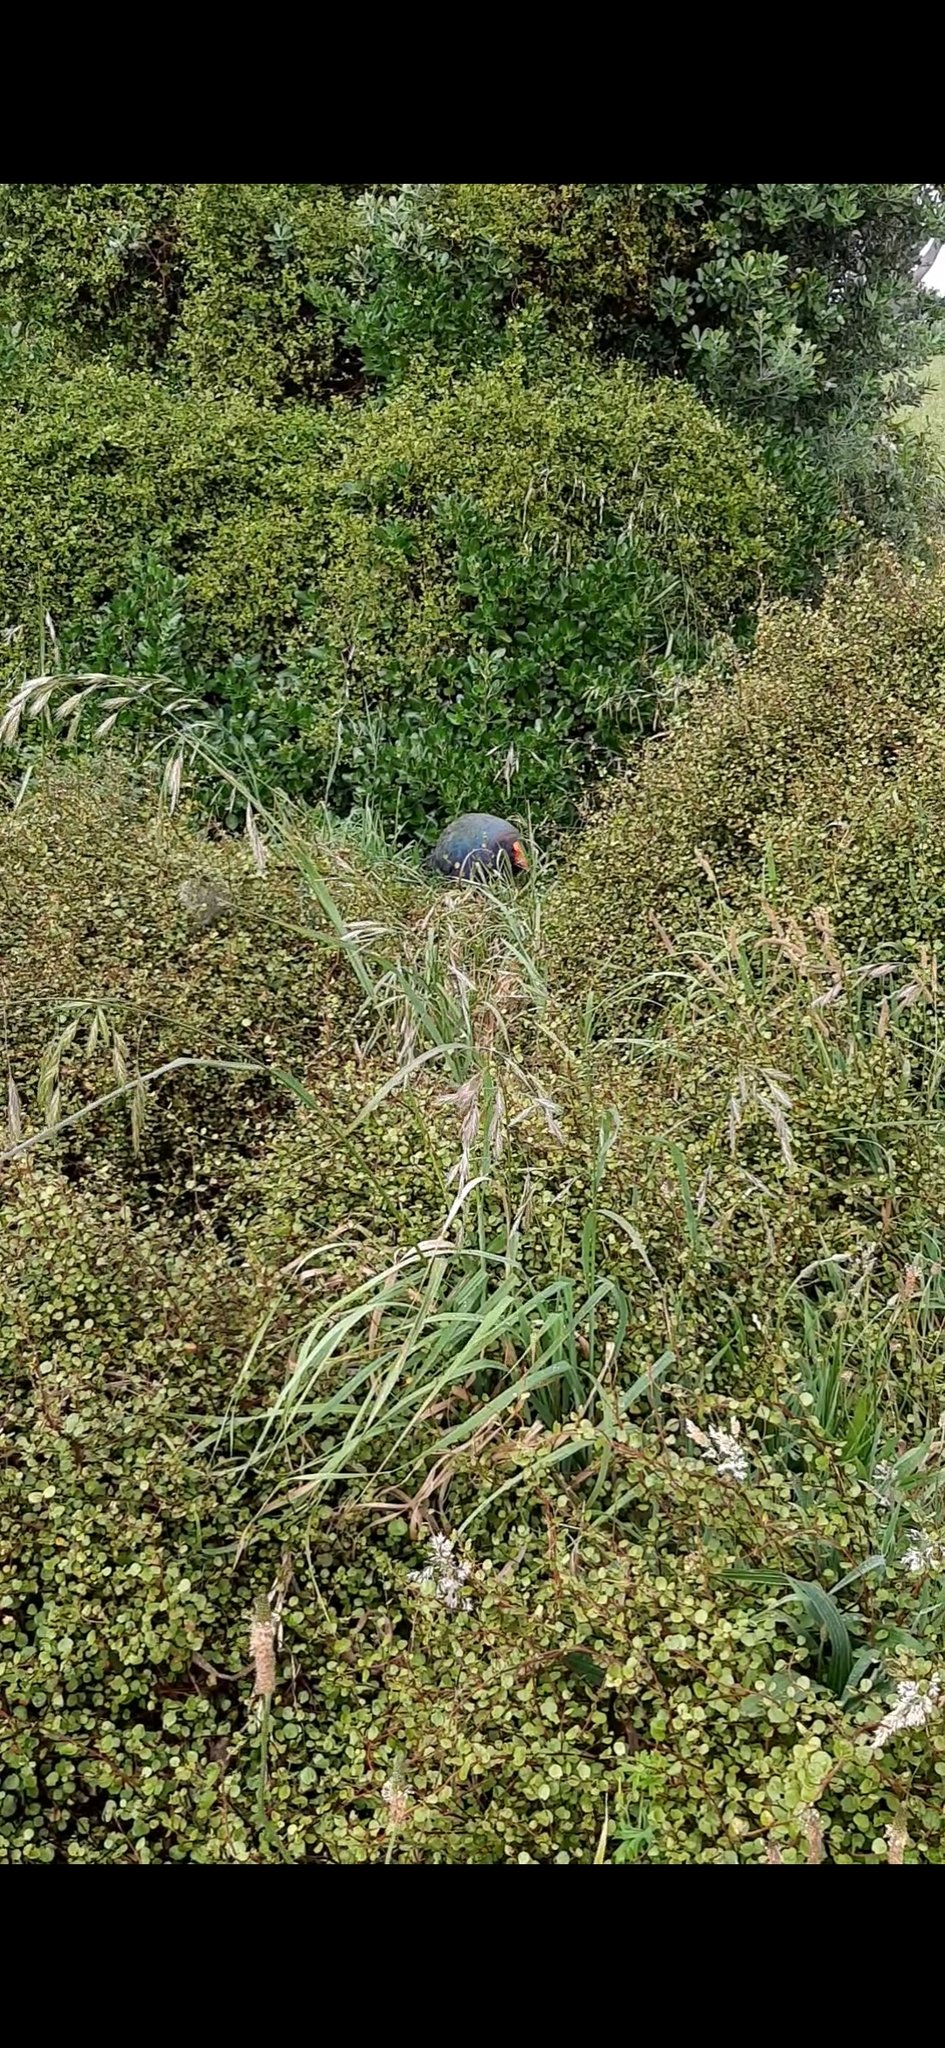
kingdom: Animalia
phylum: Chordata
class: Aves
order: Gruiformes
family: Rallidae
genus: Porphyrio
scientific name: Porphyrio hochstetteri
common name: South island takahe
